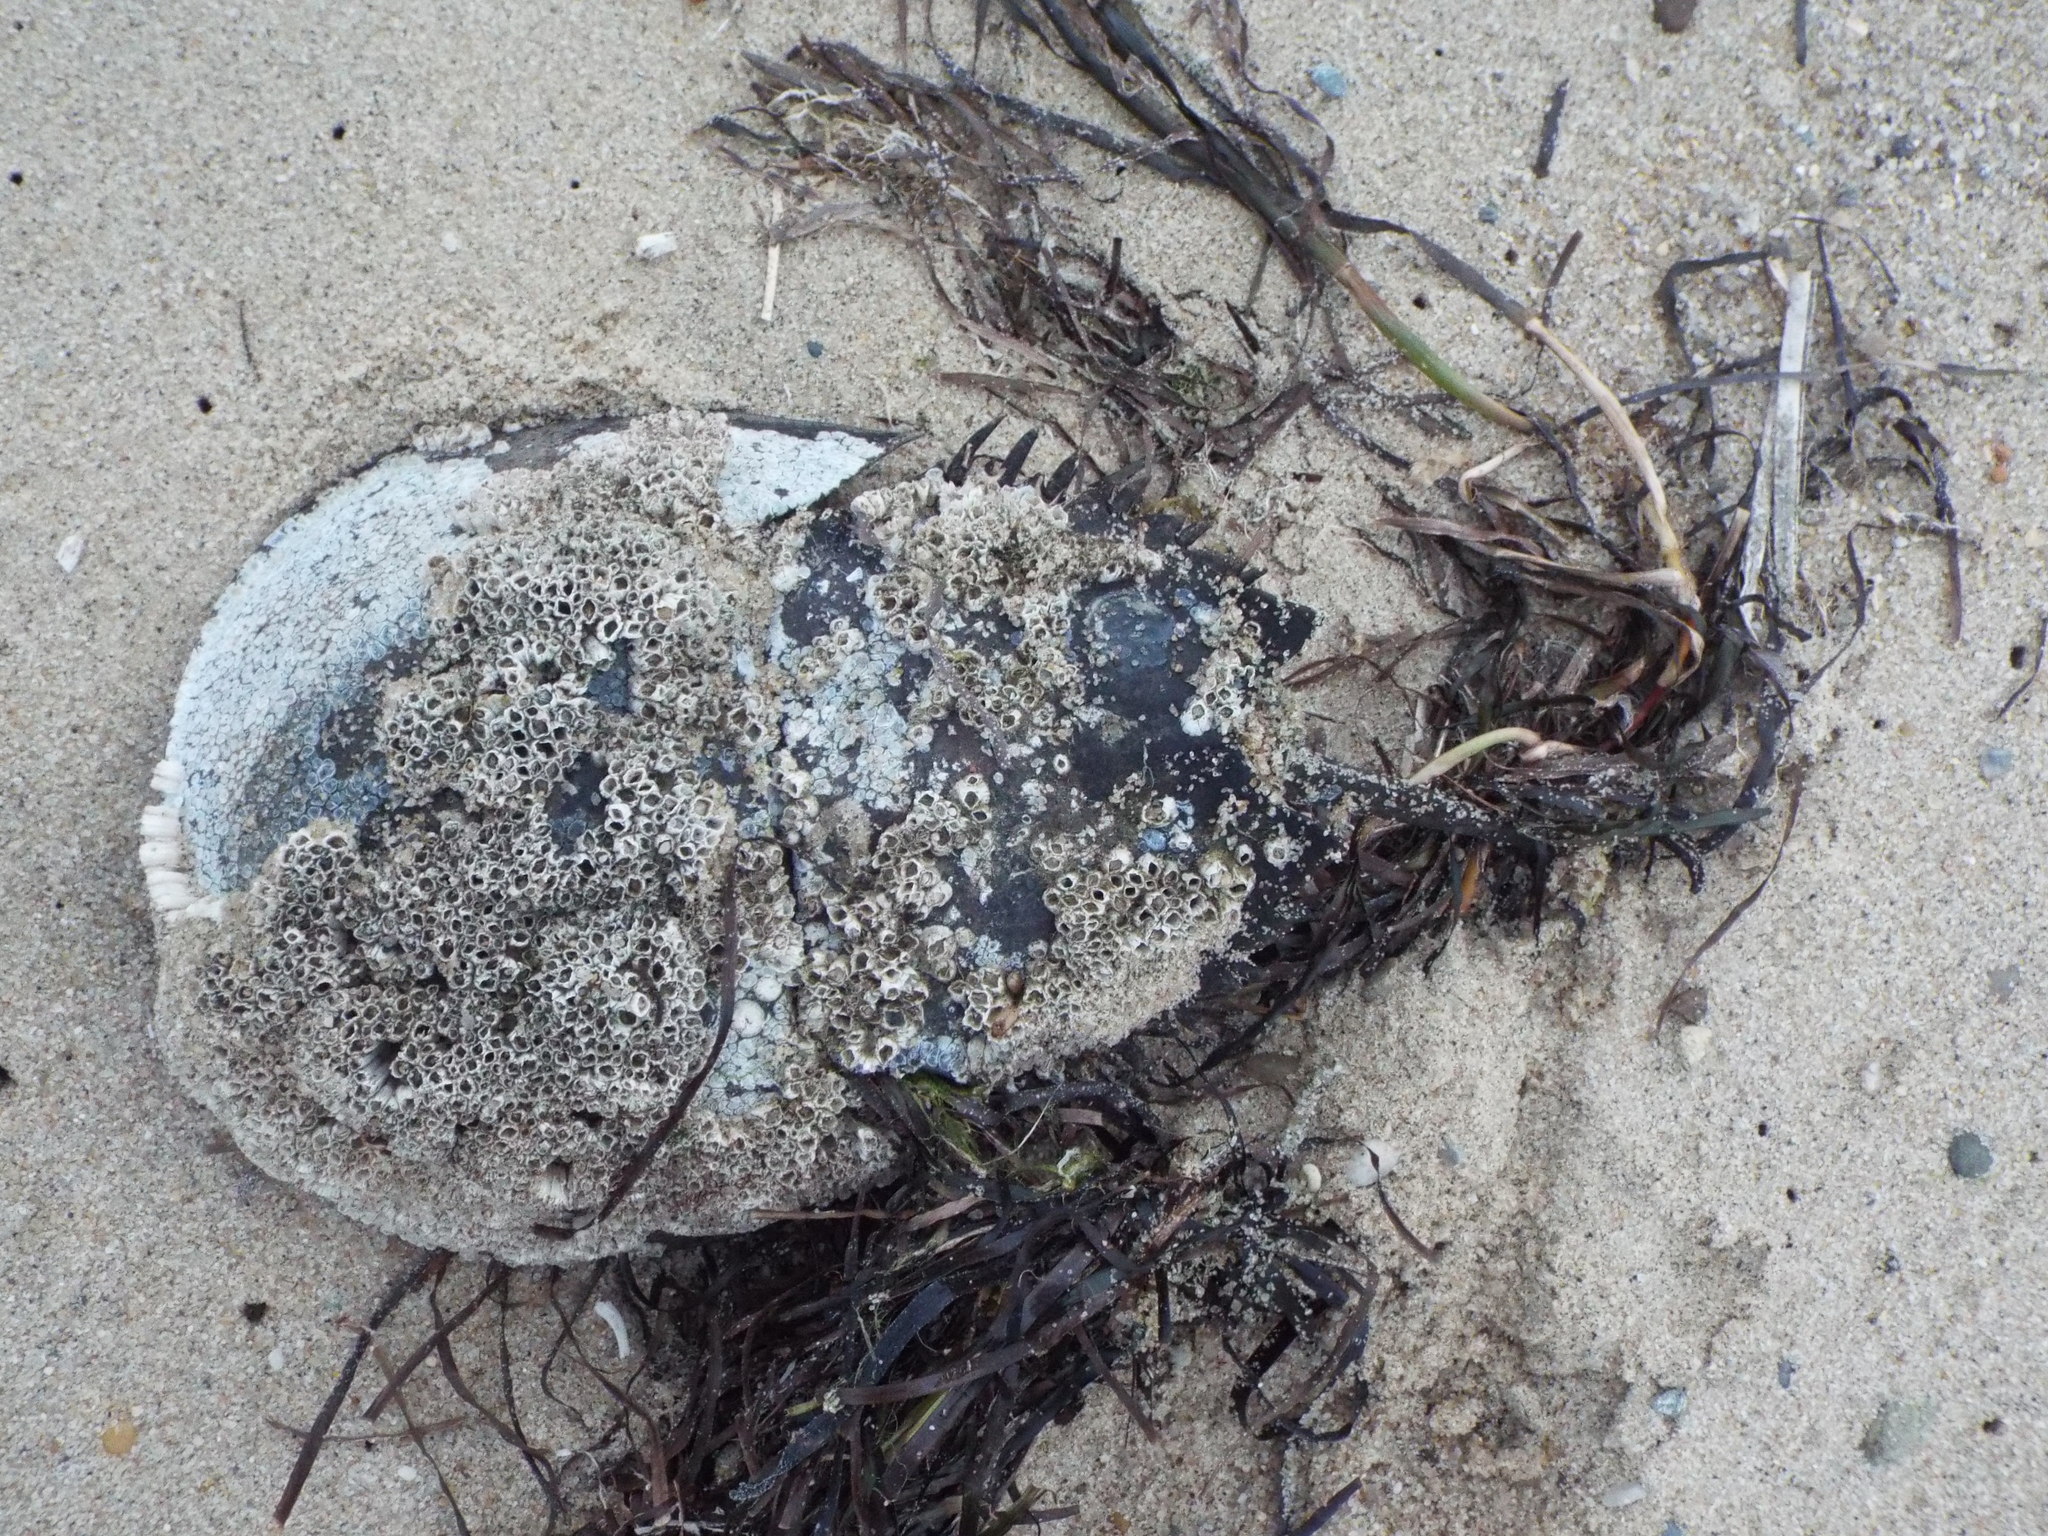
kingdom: Animalia
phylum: Arthropoda
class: Merostomata
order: Xiphosurida
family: Limulidae
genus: Limulus
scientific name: Limulus polyphemus
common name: Horseshoe crab
